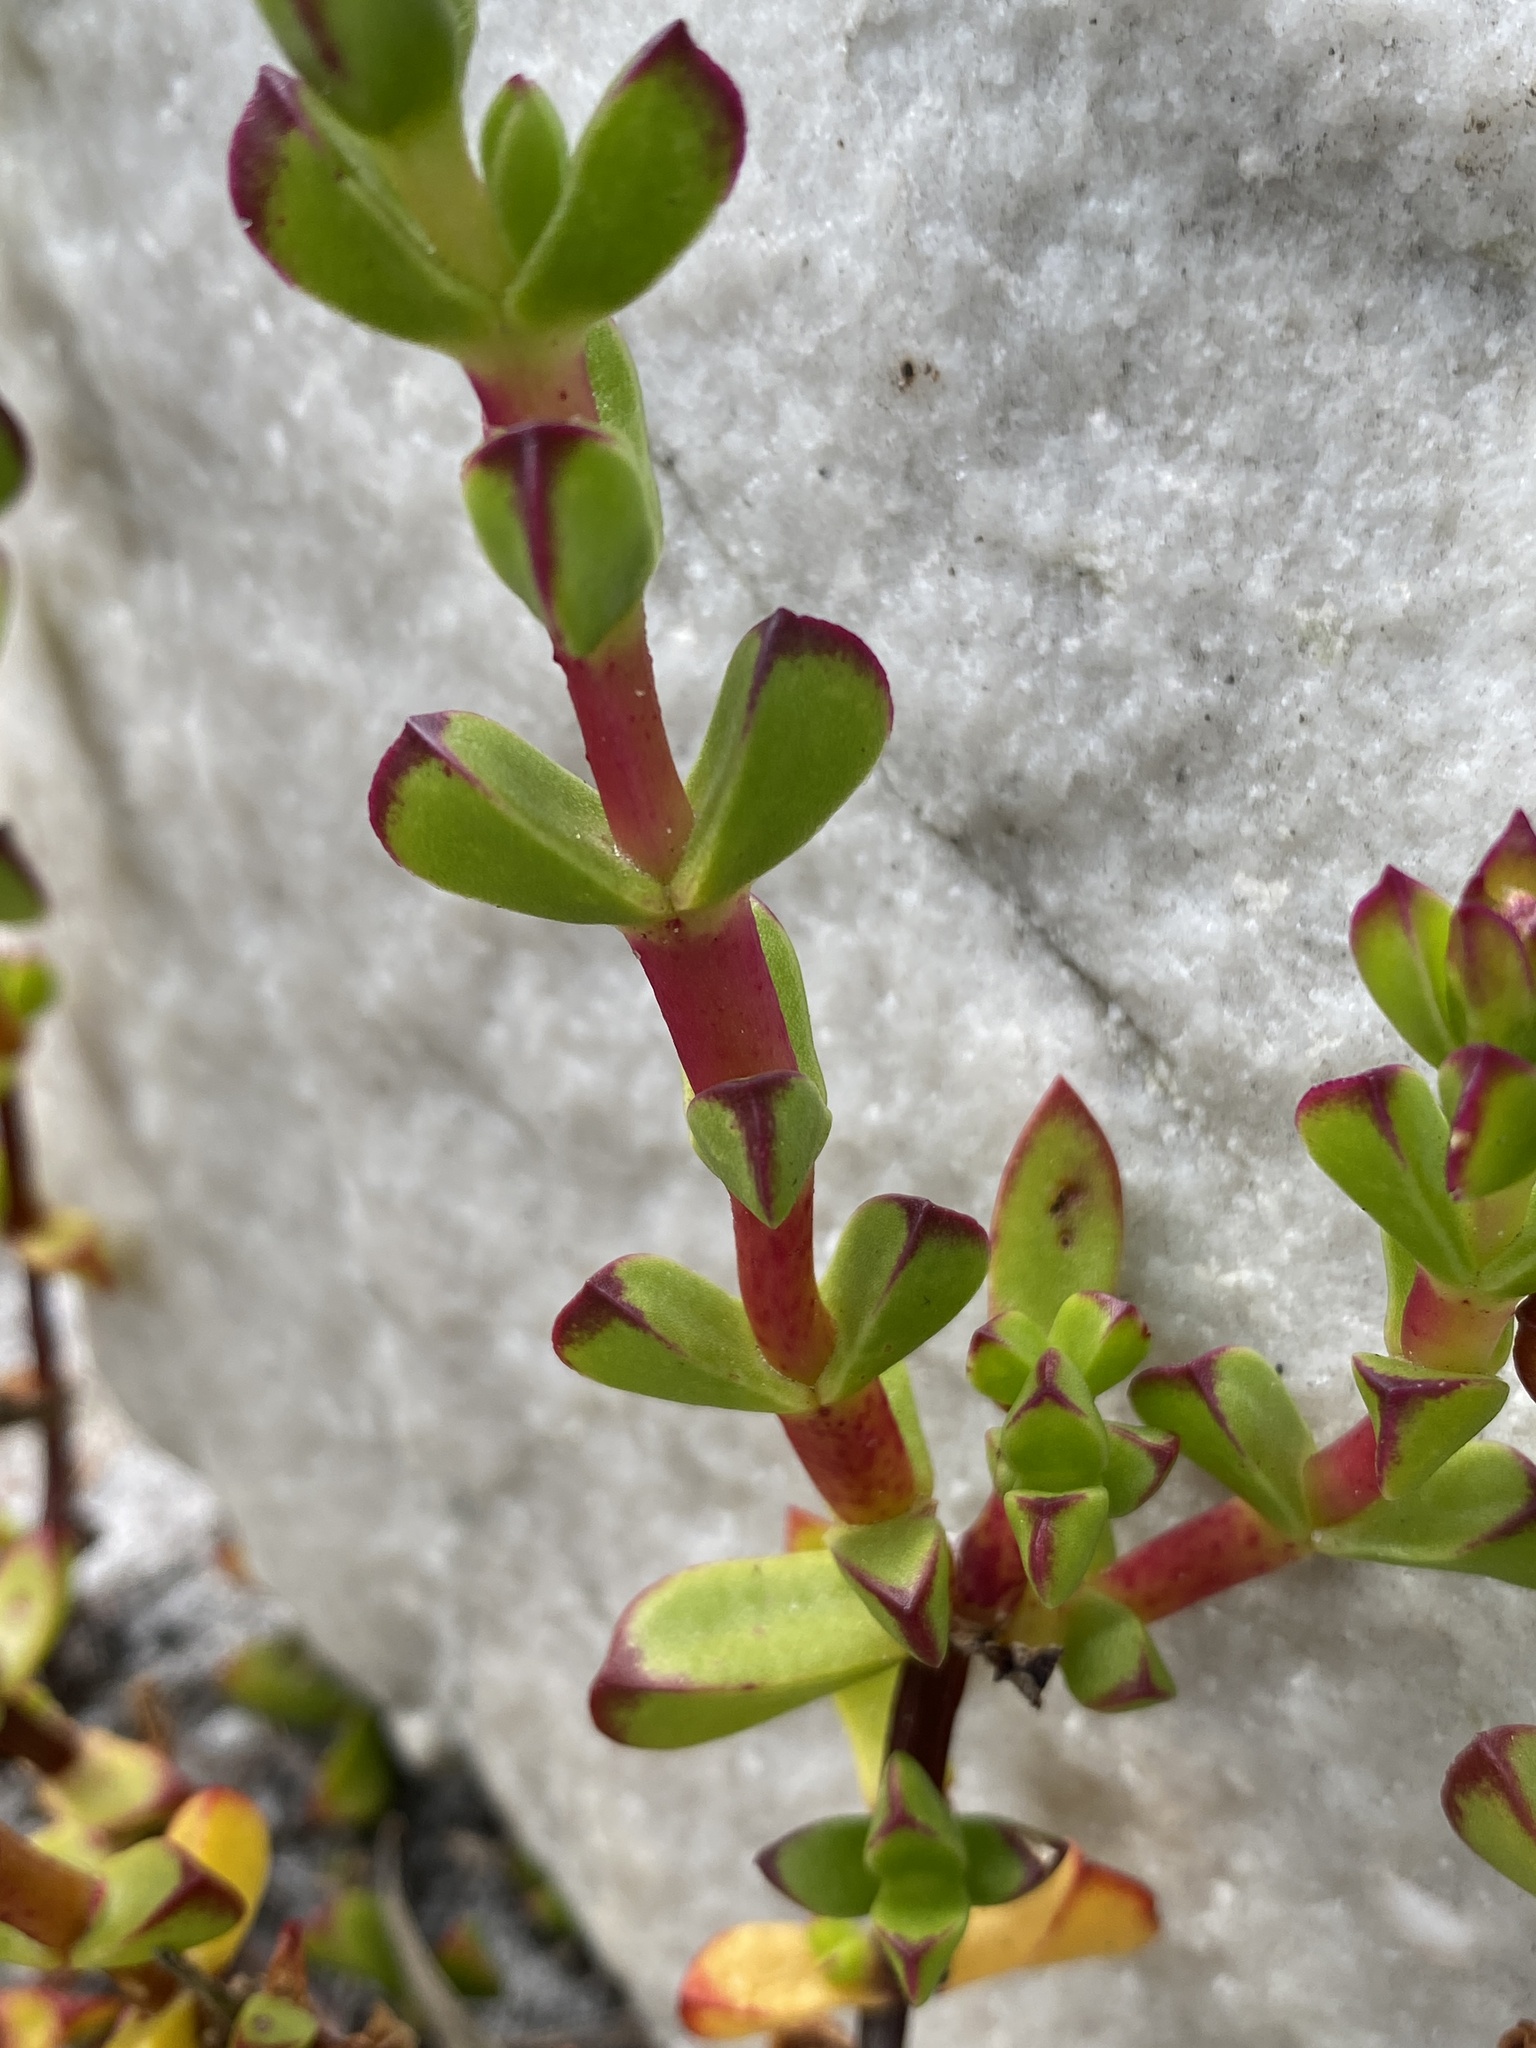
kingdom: Plantae
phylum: Tracheophyta
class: Magnoliopsida
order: Caryophyllales
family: Aizoaceae
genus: Erepsia
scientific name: Erepsia inclaudens
